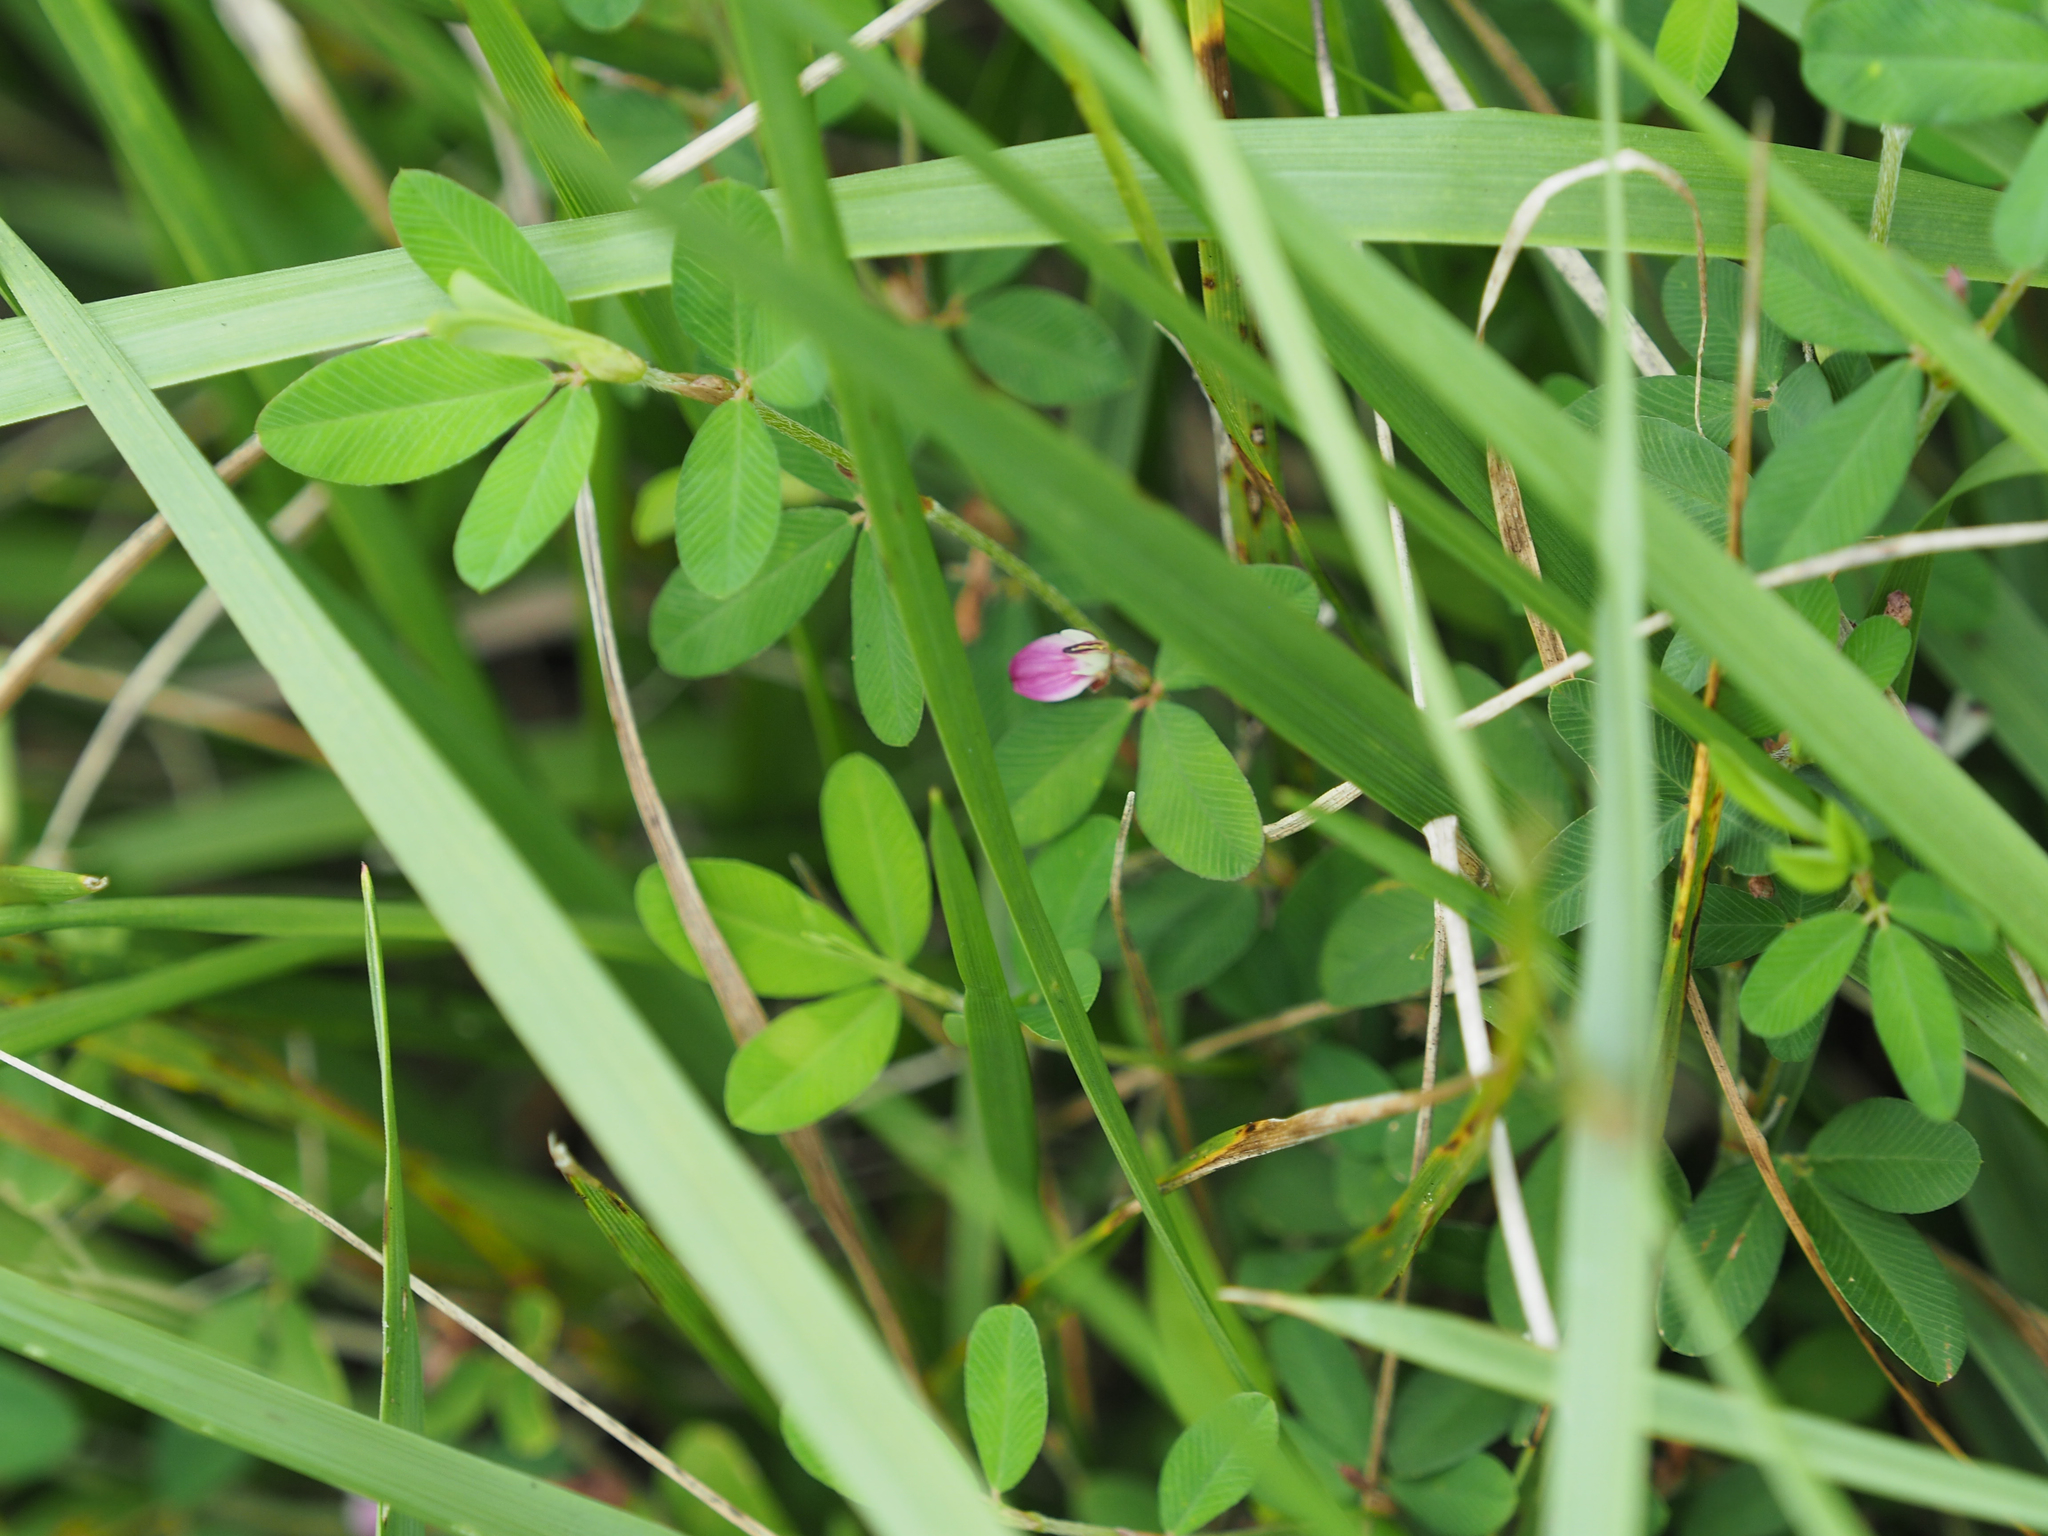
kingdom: Plantae
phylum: Tracheophyta
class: Magnoliopsida
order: Fabales
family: Fabaceae
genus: Kummerowia
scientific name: Kummerowia striata
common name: Japanese clover
